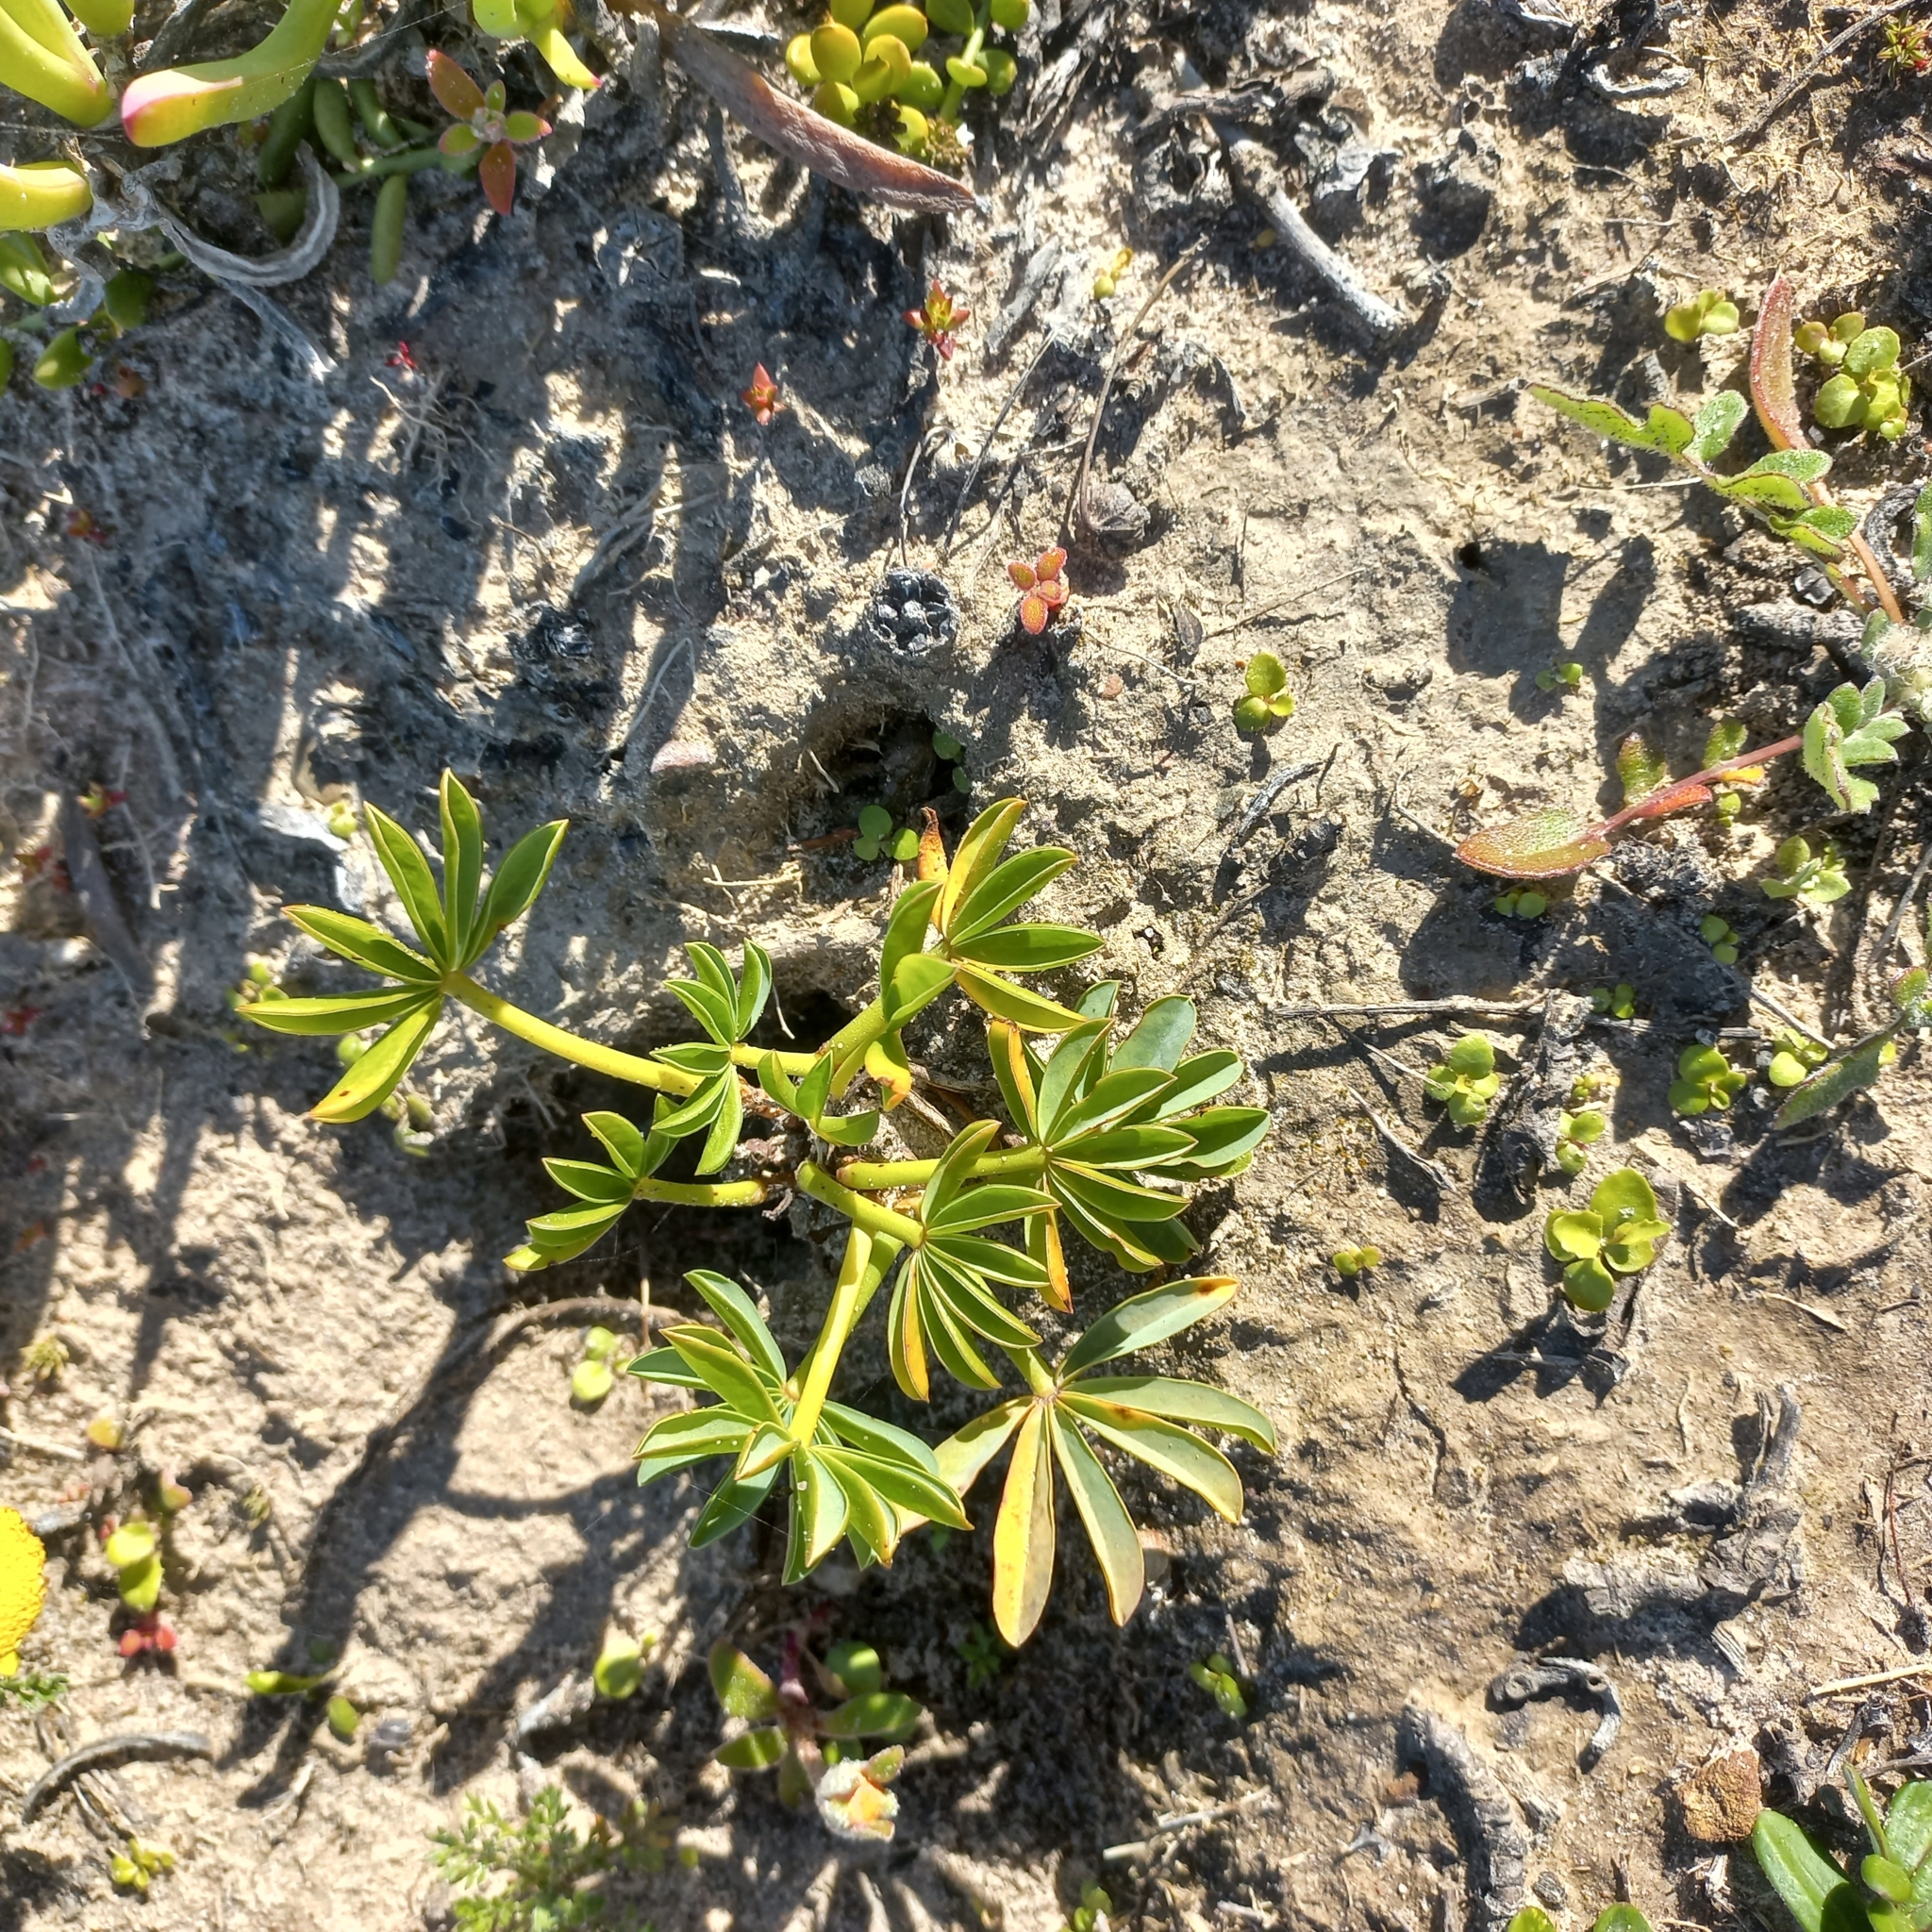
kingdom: Plantae
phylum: Tracheophyta
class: Magnoliopsida
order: Oxalidales
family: Oxalidaceae
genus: Oxalis
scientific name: Oxalis flava
